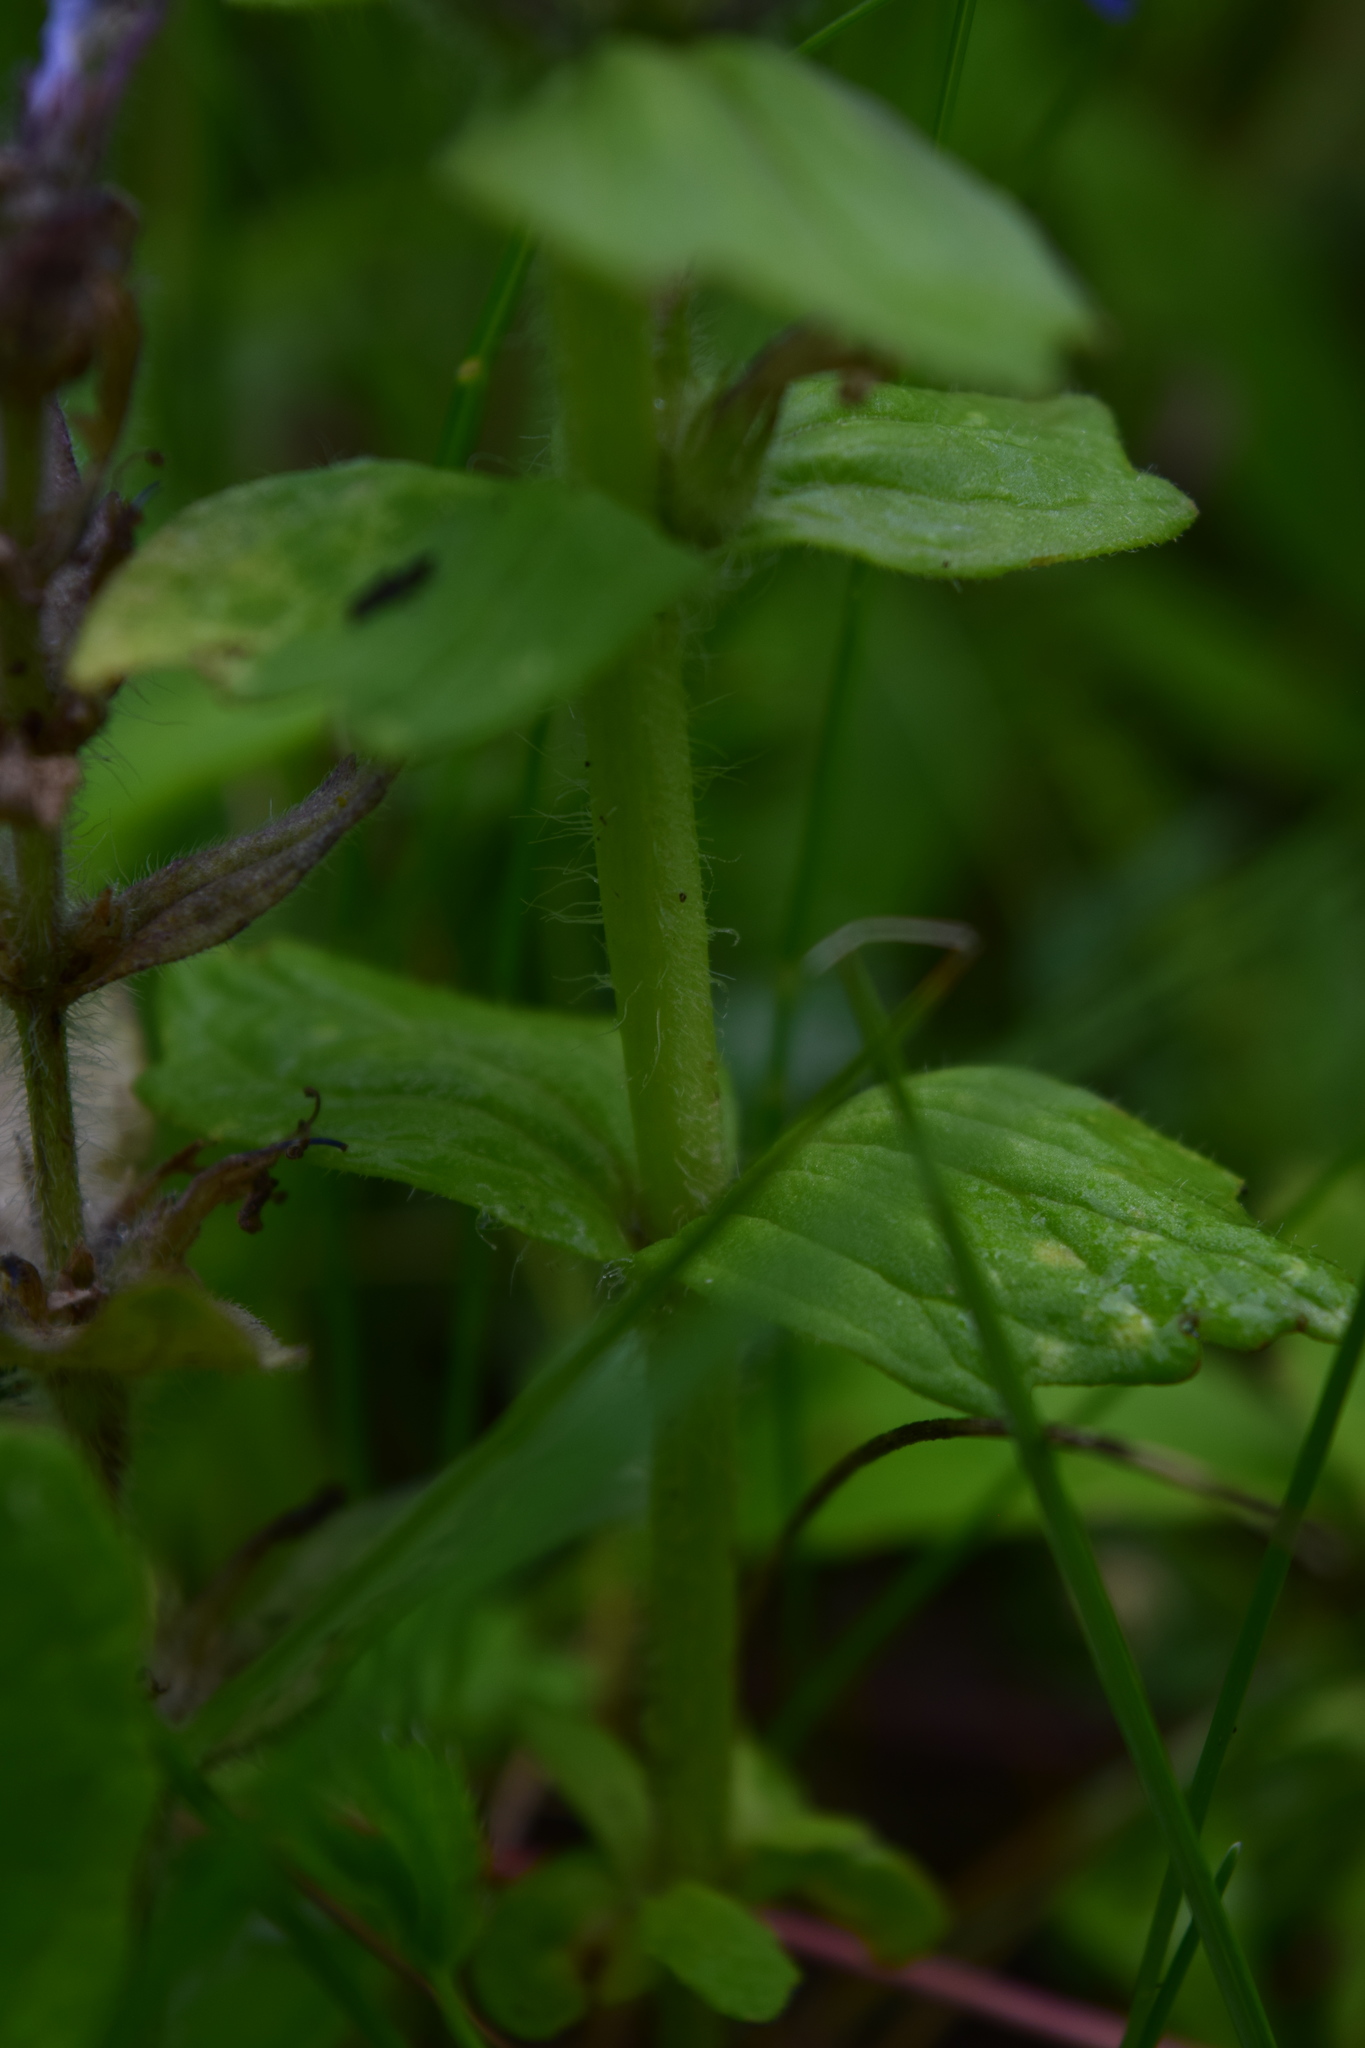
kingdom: Plantae
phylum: Tracheophyta
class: Magnoliopsida
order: Lamiales
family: Lamiaceae
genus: Ajuga
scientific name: Ajuga genevensis
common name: Blue bugle
